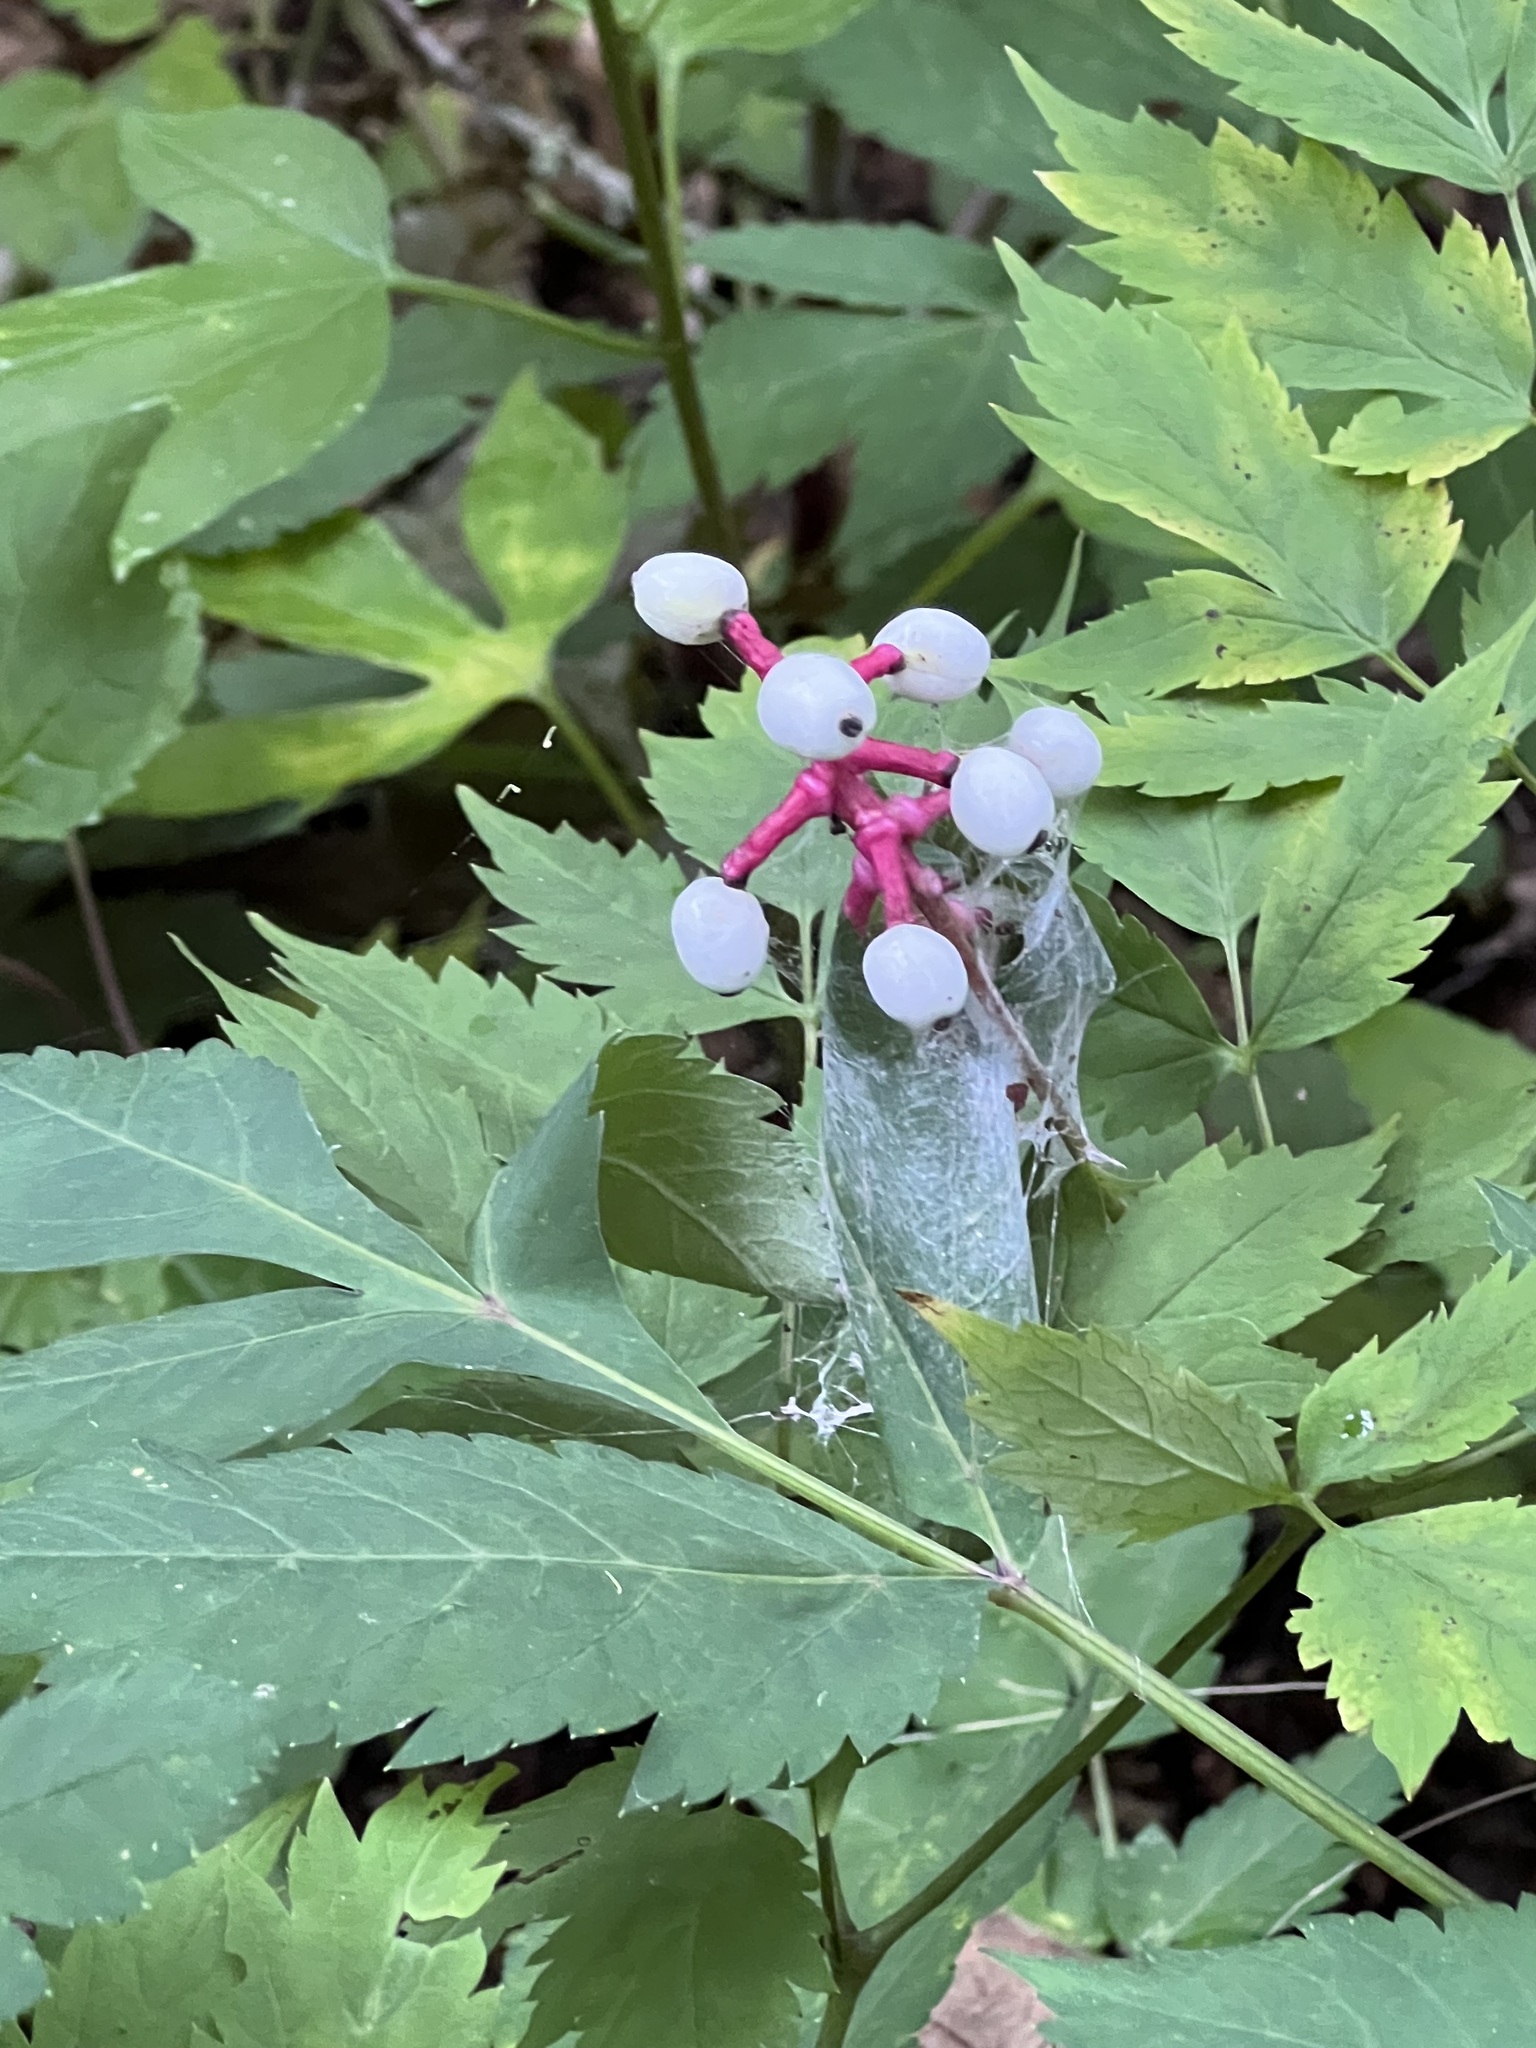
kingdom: Plantae
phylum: Tracheophyta
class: Magnoliopsida
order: Ranunculales
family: Ranunculaceae
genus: Actaea
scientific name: Actaea pachypoda
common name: Doll's-eyes
